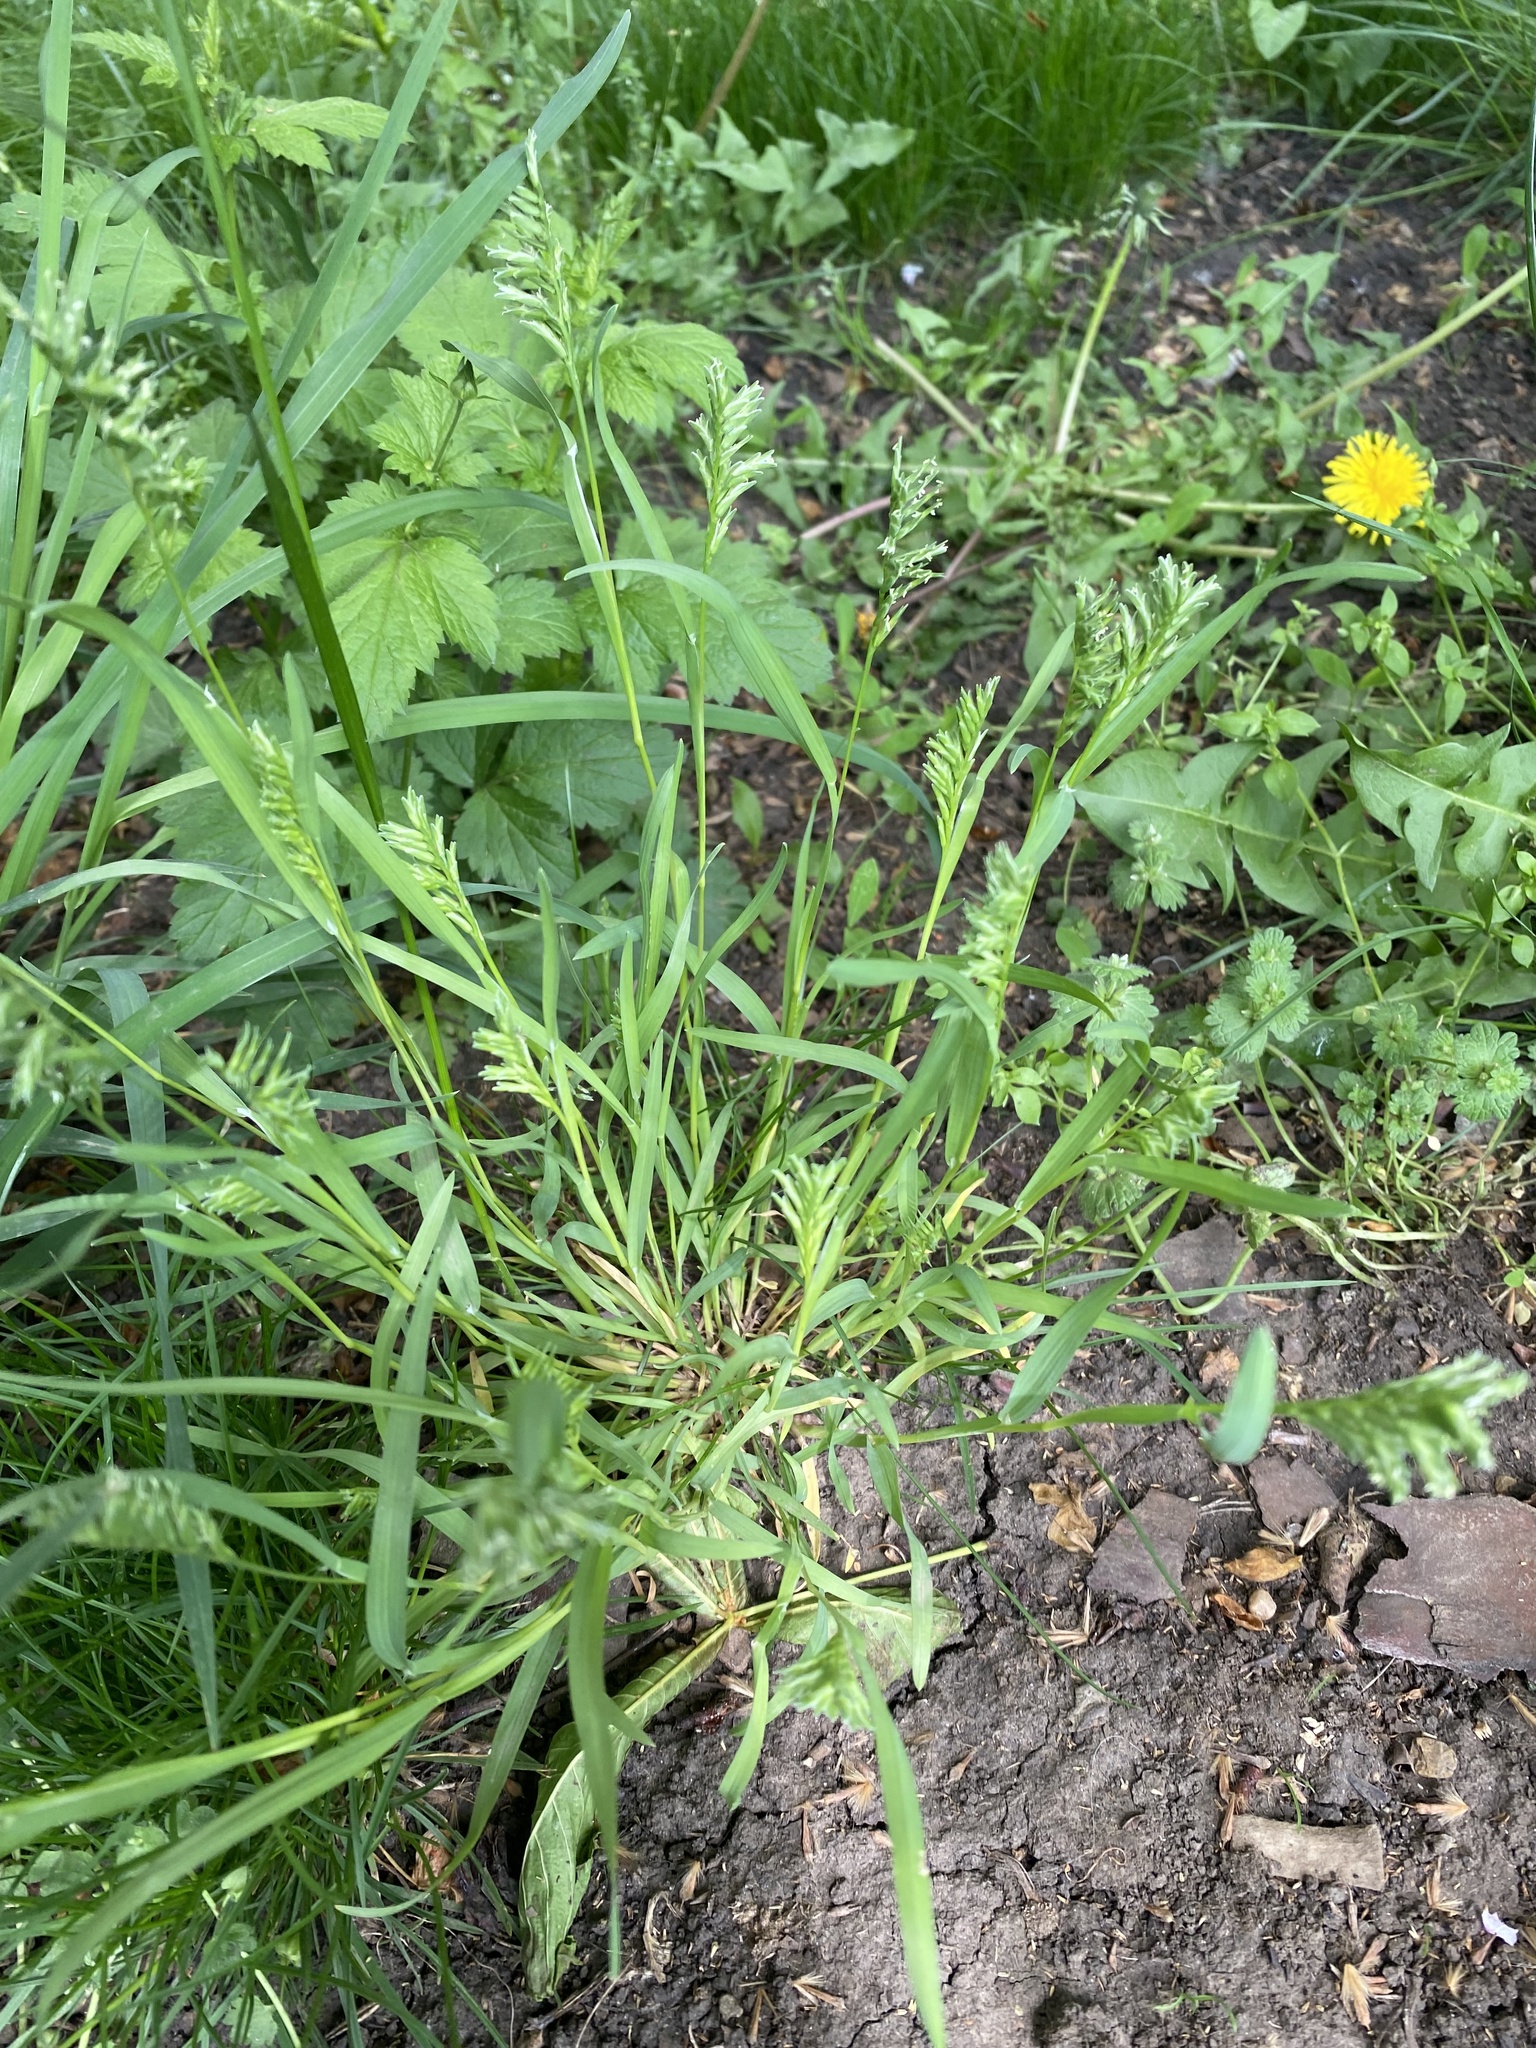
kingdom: Plantae
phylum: Tracheophyta
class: Liliopsida
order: Poales
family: Poaceae
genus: Sclerochloa
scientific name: Sclerochloa dura
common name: Common hardgrass
